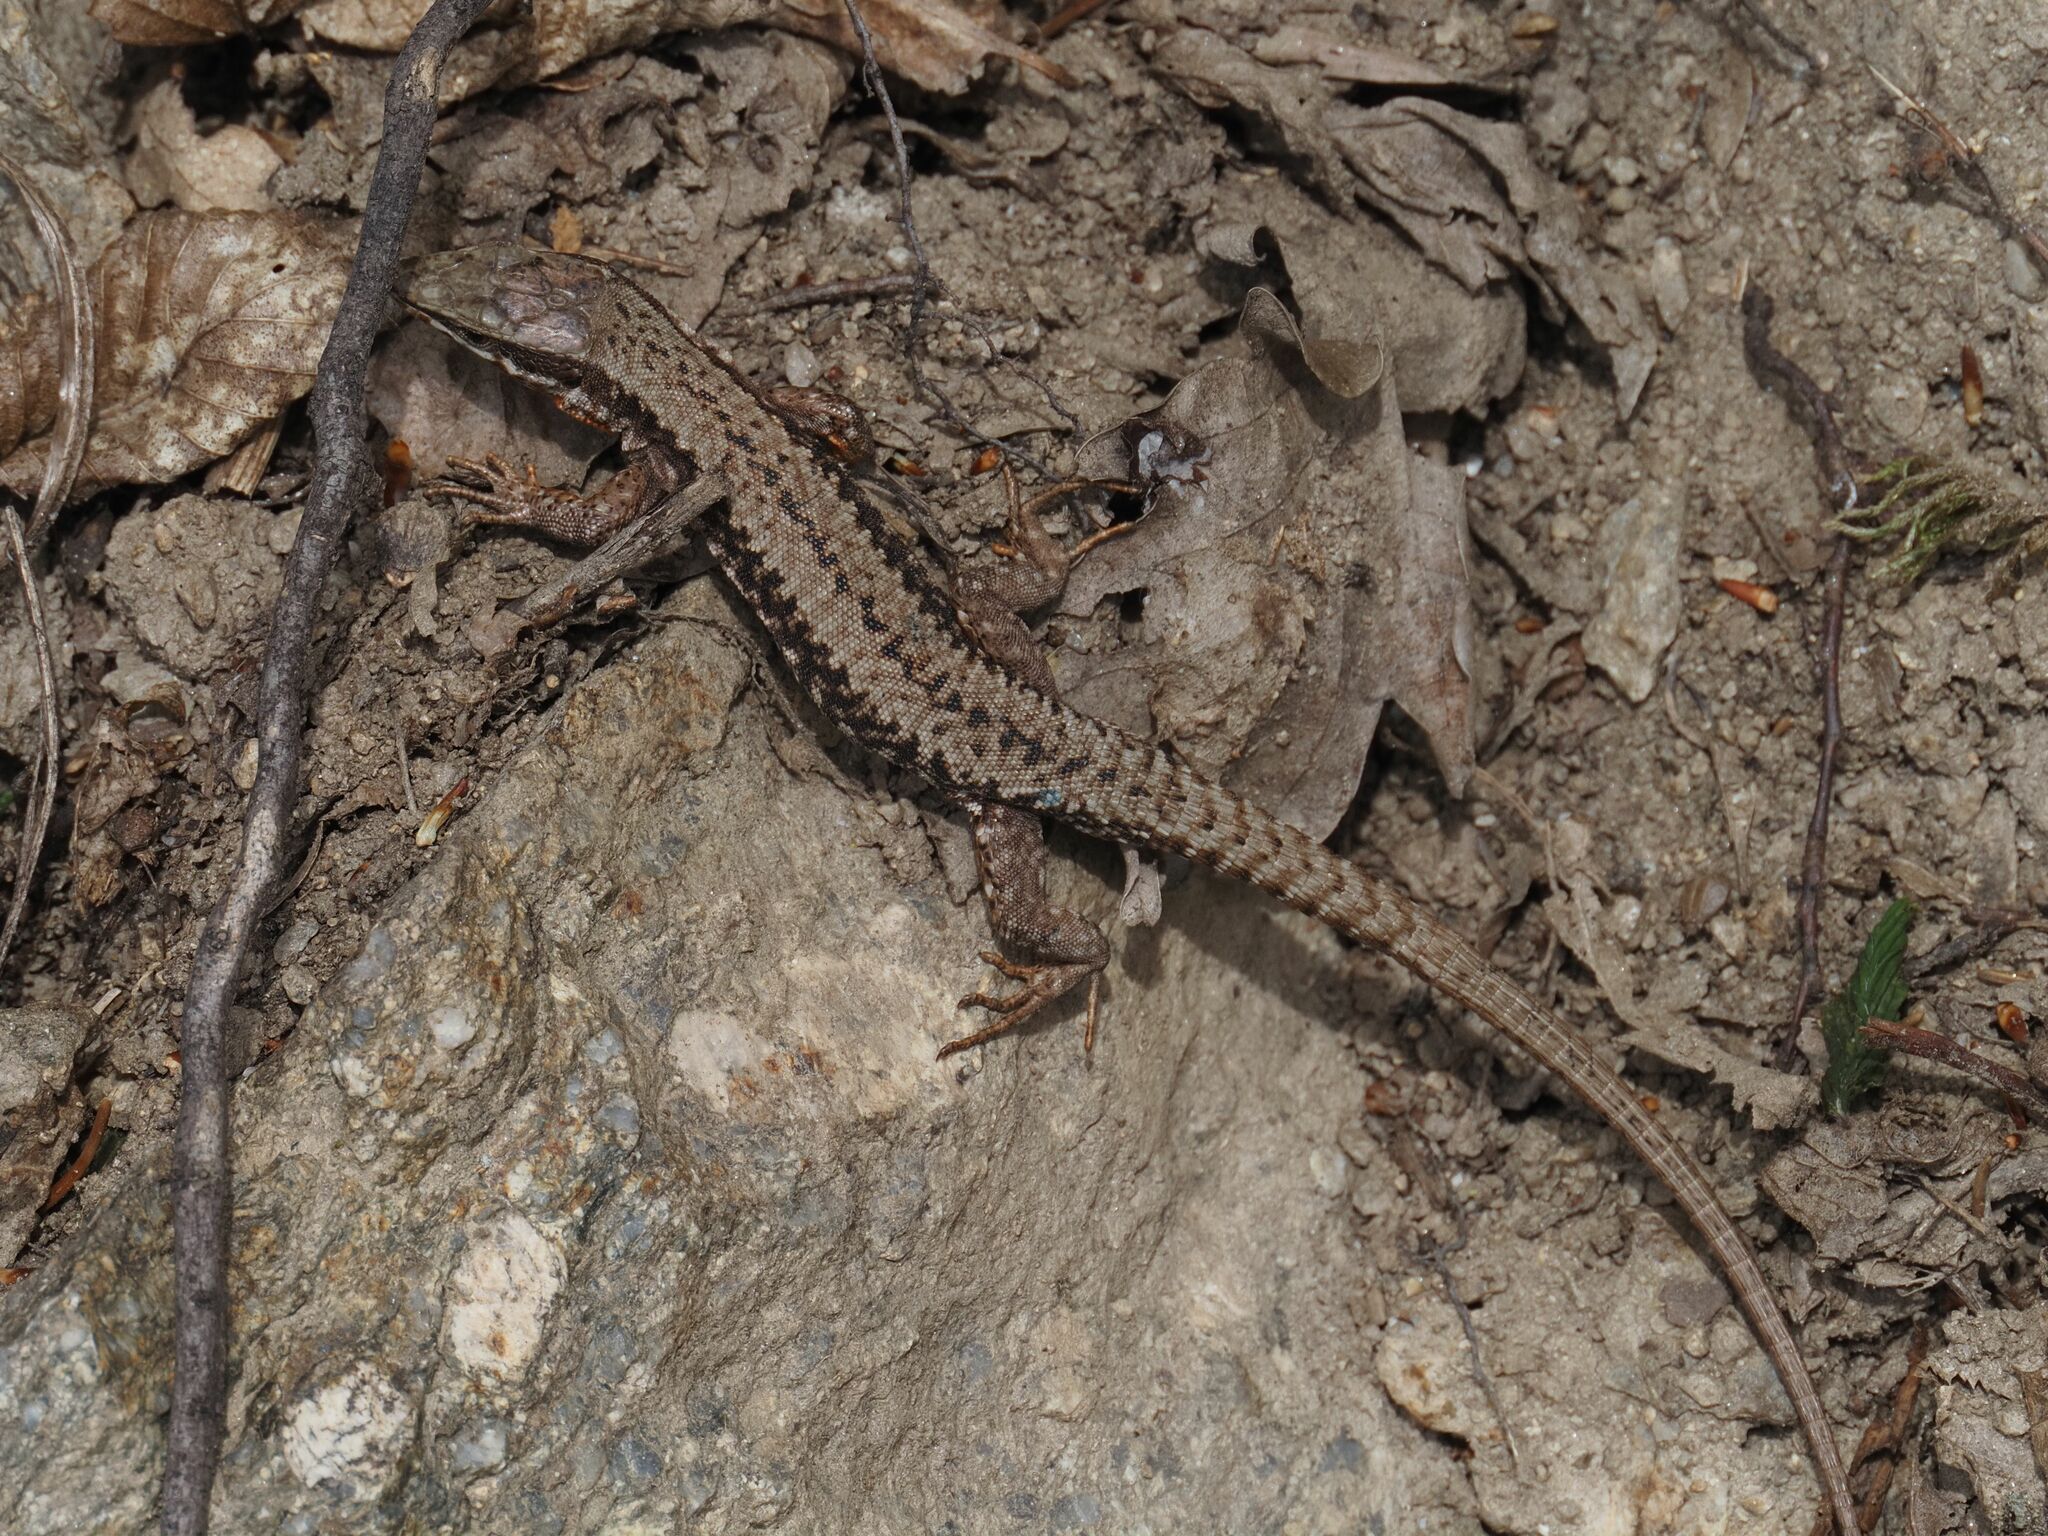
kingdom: Animalia
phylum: Chordata
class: Squamata
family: Lacertidae
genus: Podarcis
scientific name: Podarcis muralis
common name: Common wall lizard
